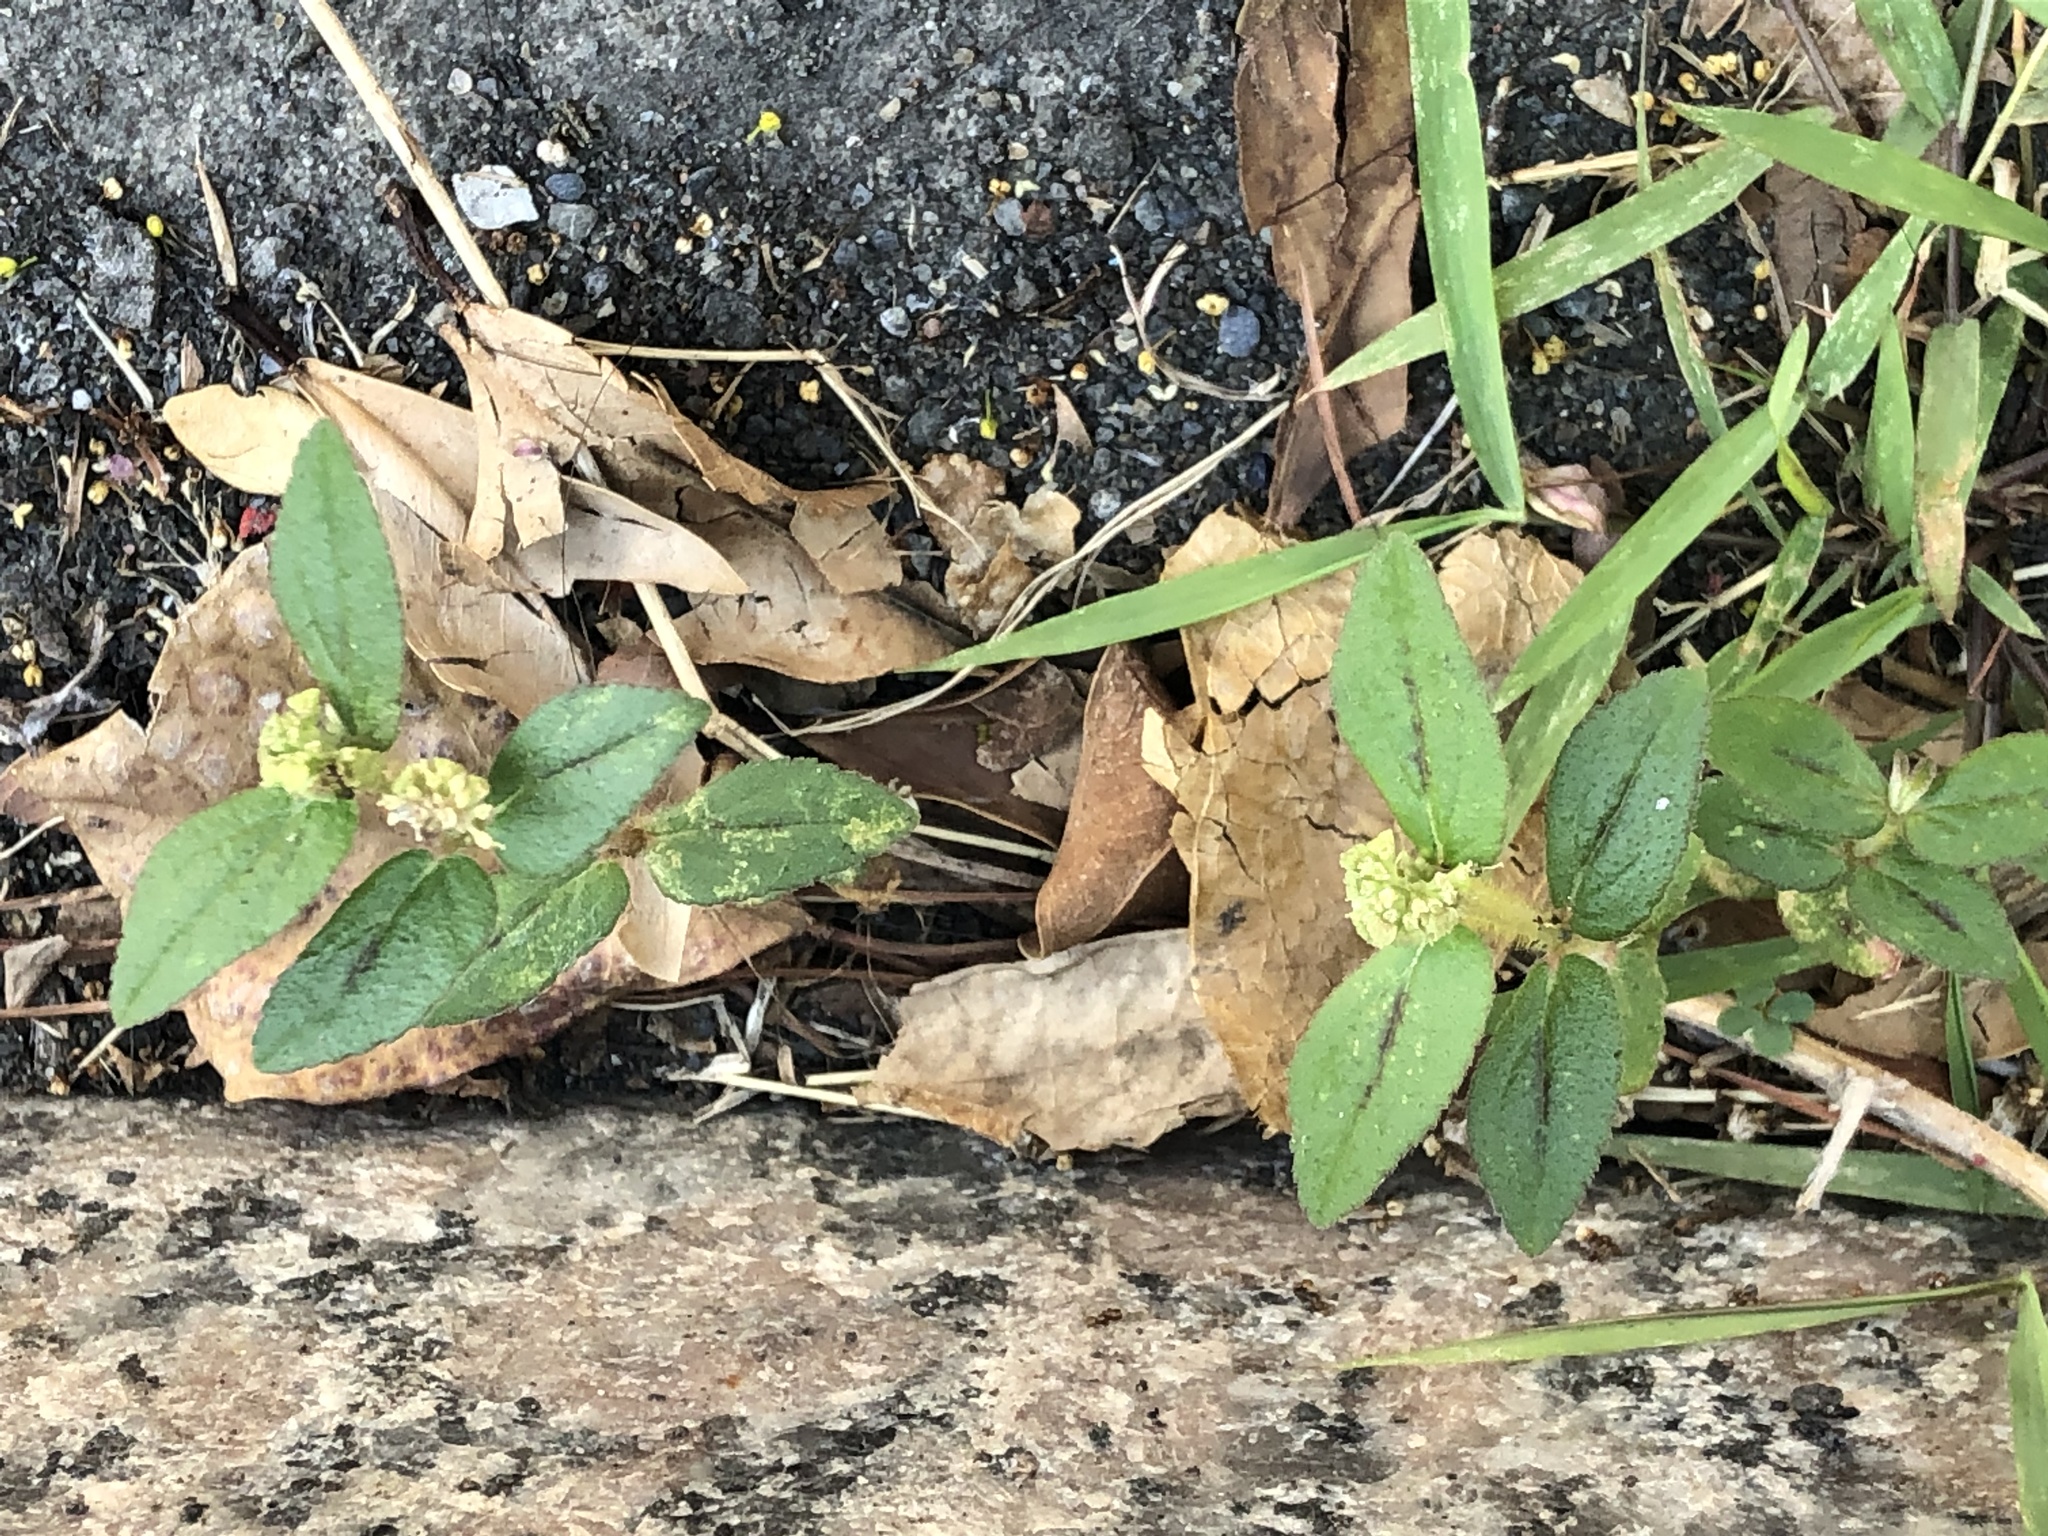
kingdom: Plantae
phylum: Tracheophyta
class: Magnoliopsida
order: Malpighiales
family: Euphorbiaceae
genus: Euphorbia
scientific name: Euphorbia hirta
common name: Pillpod sandmat
